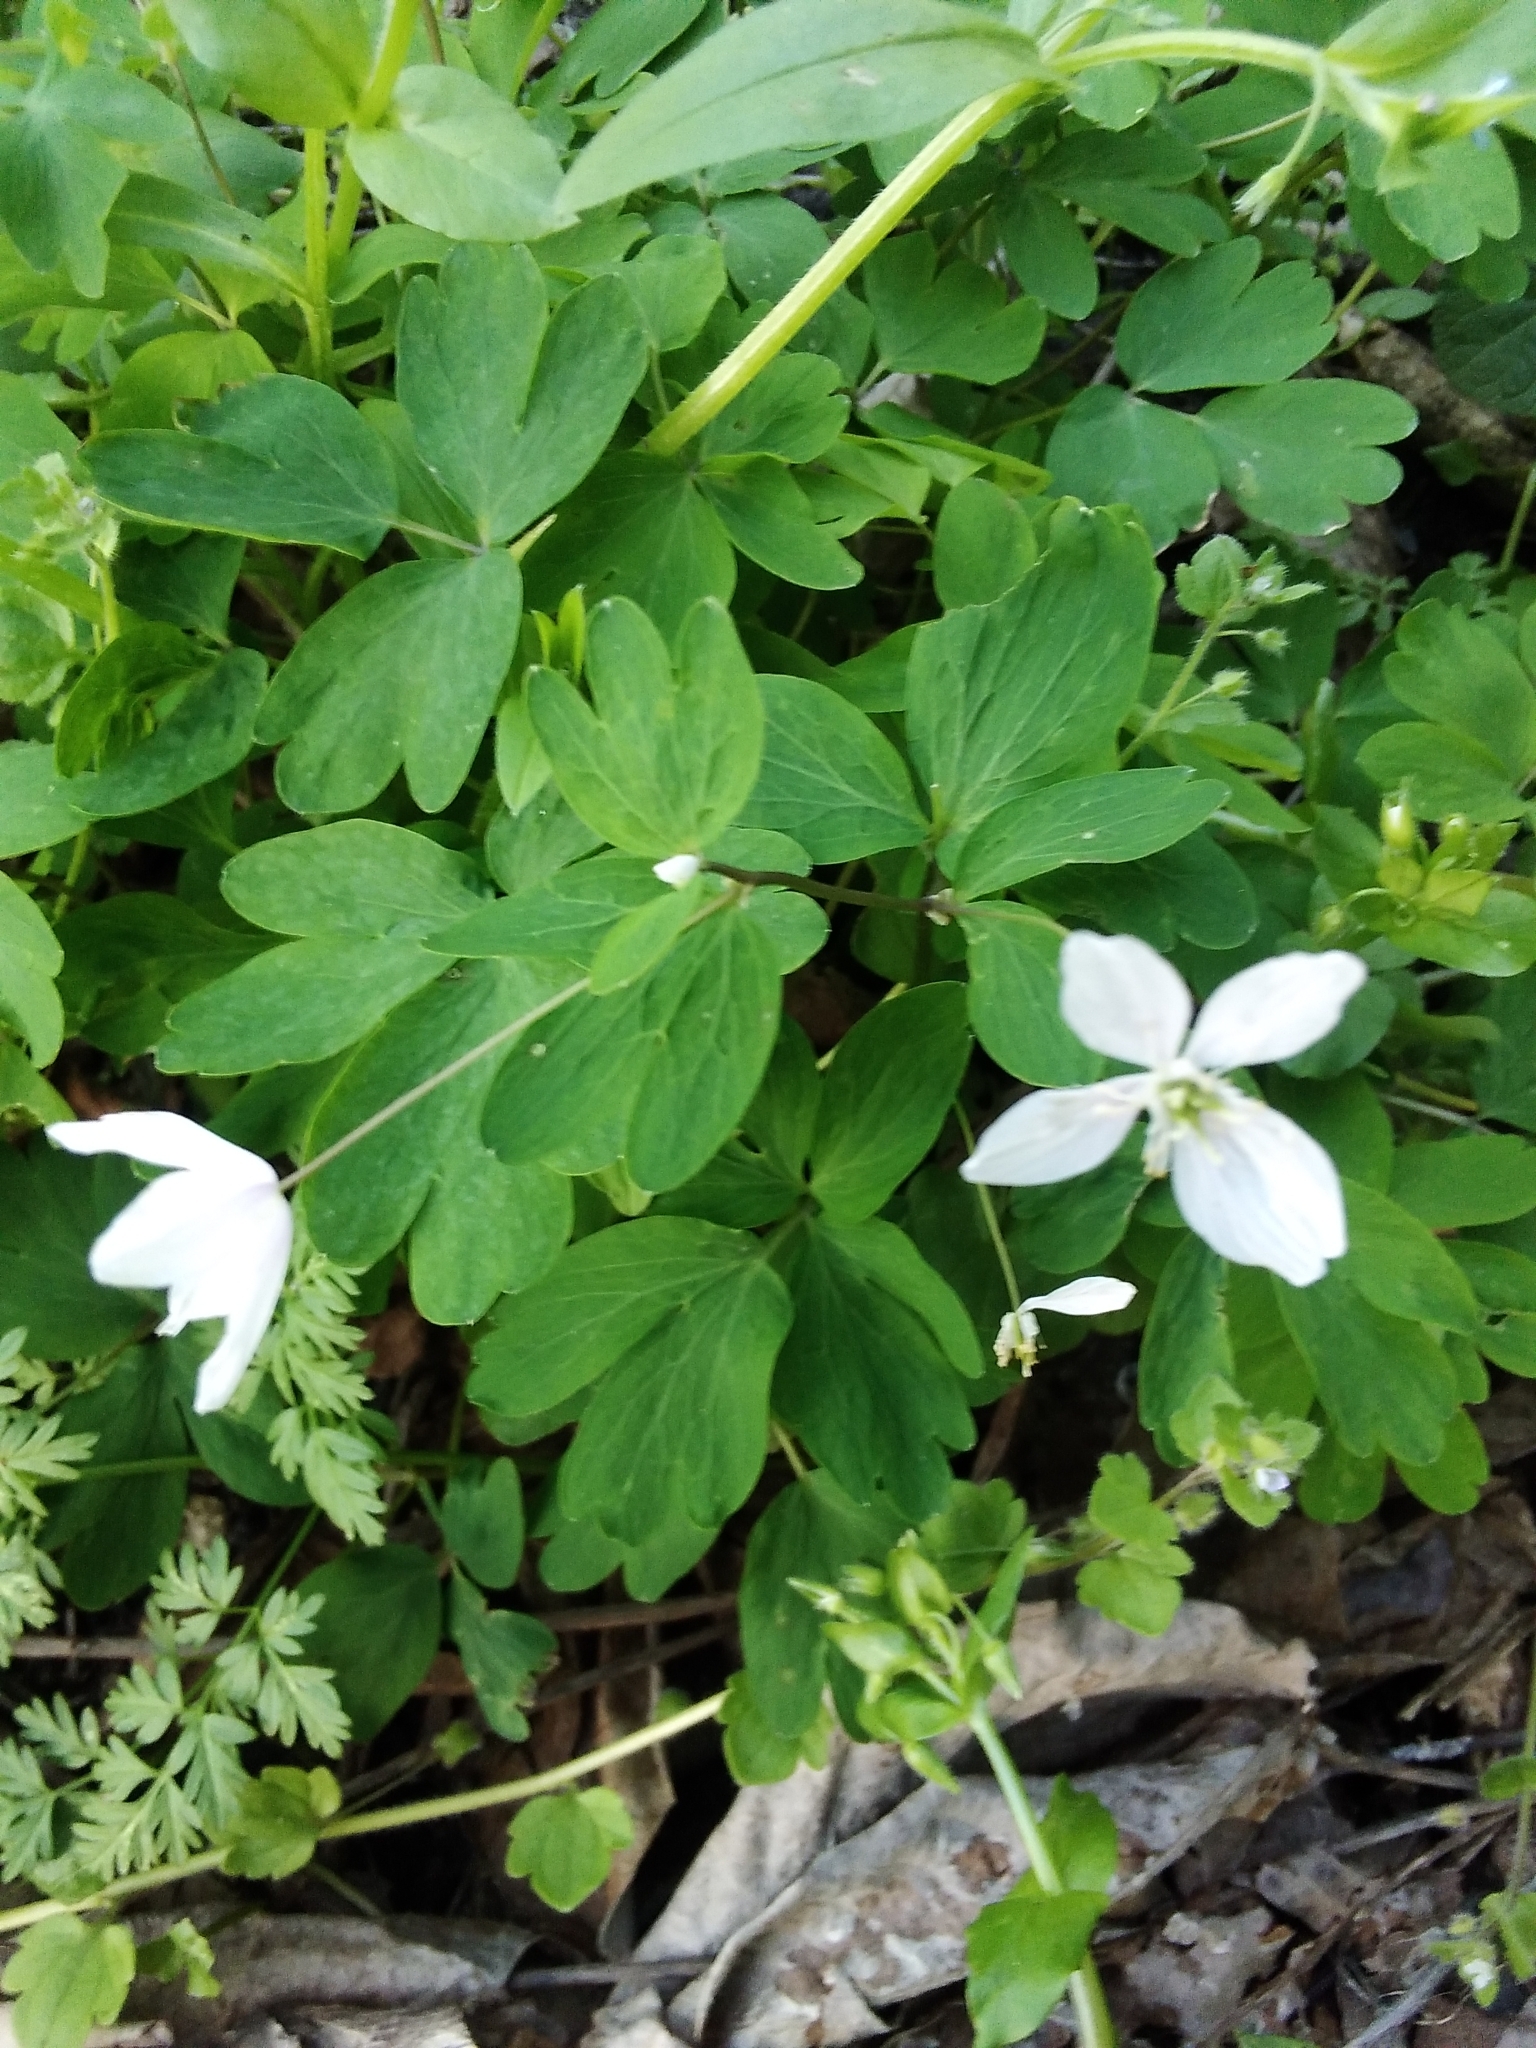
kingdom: Plantae
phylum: Tracheophyta
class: Magnoliopsida
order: Ranunculales
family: Ranunculaceae
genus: Isopyrum
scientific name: Isopyrum thalictroides
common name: Isopyrum
